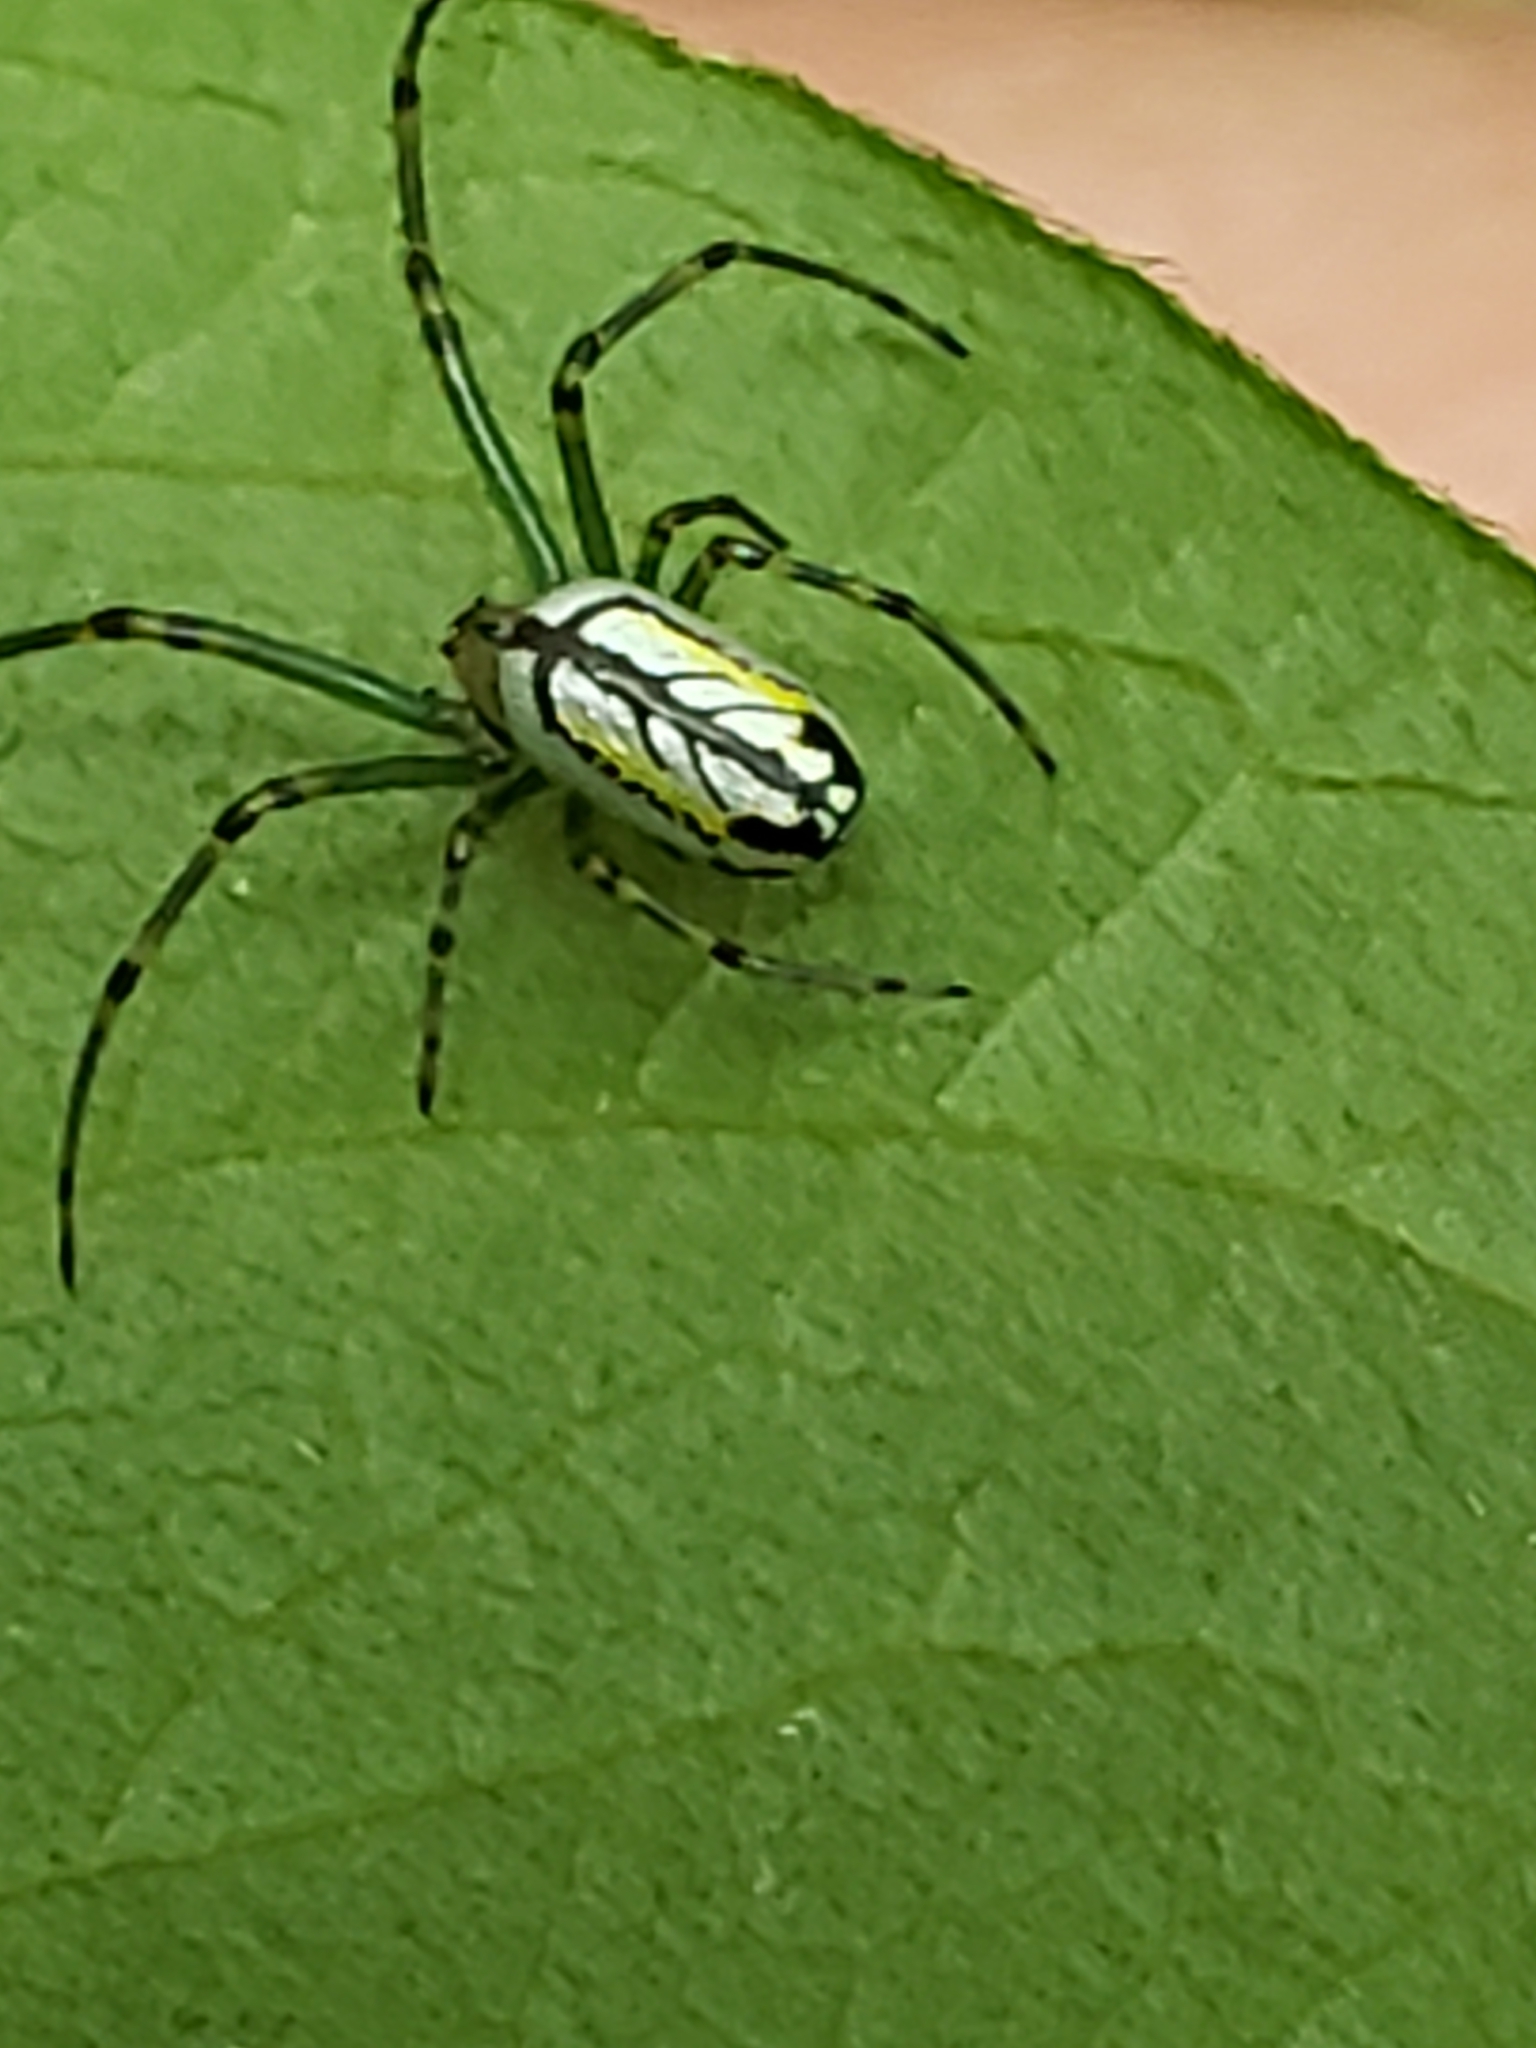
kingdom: Animalia
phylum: Arthropoda
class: Arachnida
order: Araneae
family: Tetragnathidae
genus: Leucauge
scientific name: Leucauge venusta
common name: Longjawed orb weavers
